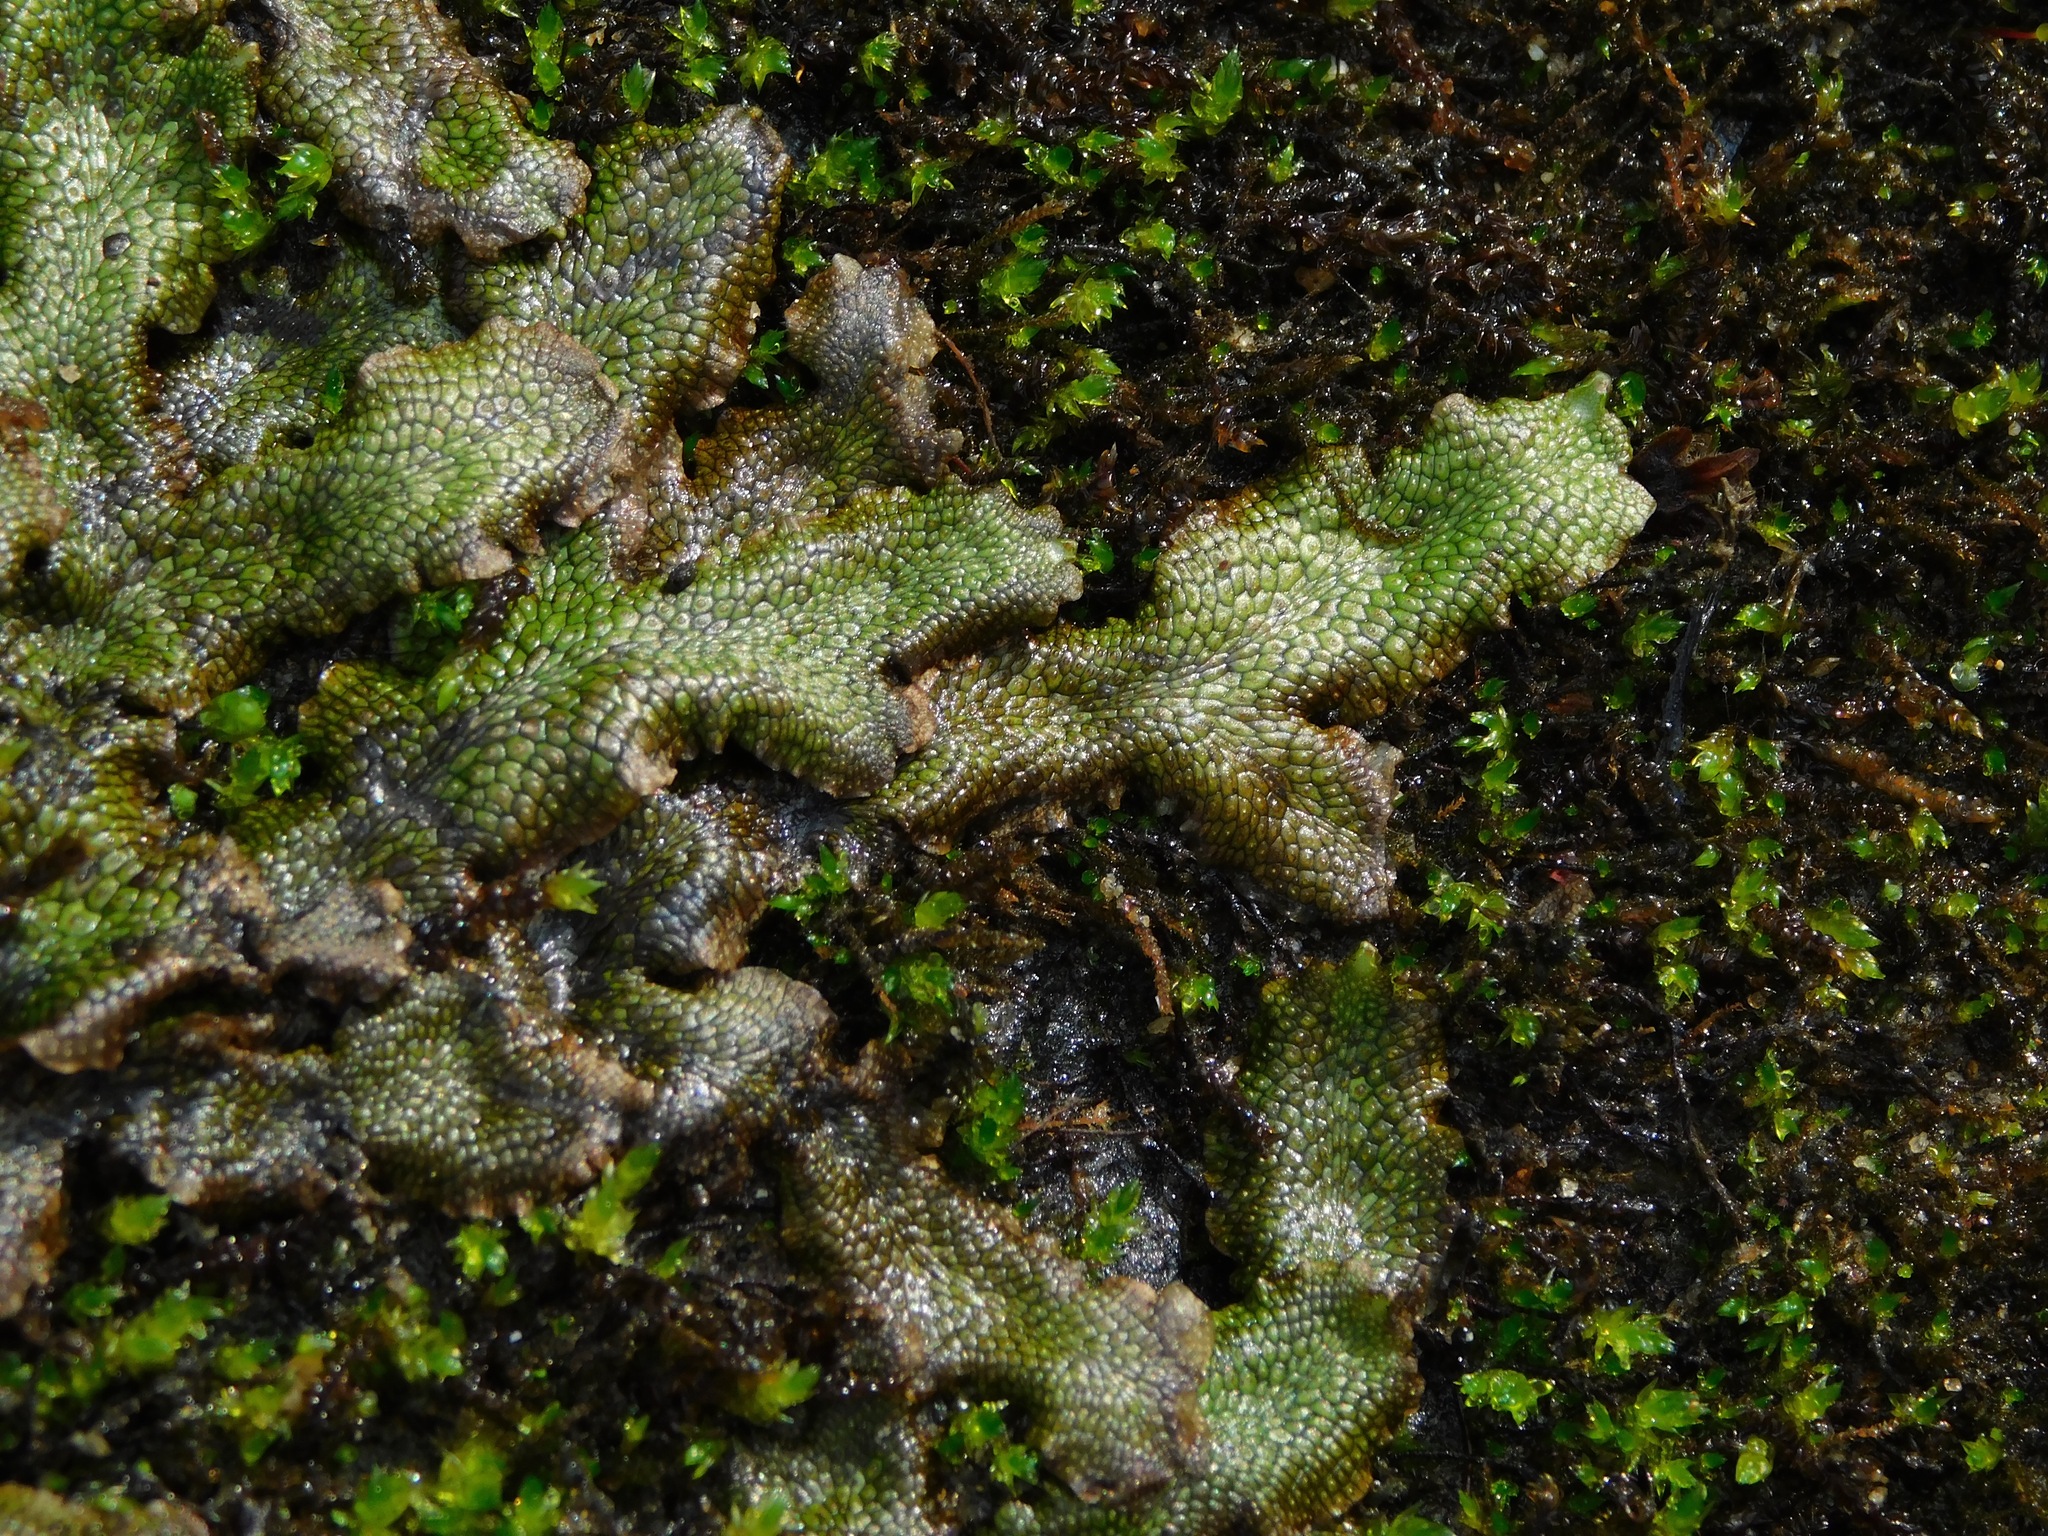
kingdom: Plantae
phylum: Marchantiophyta
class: Marchantiopsida
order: Marchantiales
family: Conocephalaceae
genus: Conocephalum
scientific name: Conocephalum salebrosum
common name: Cat-tongue liverwort
